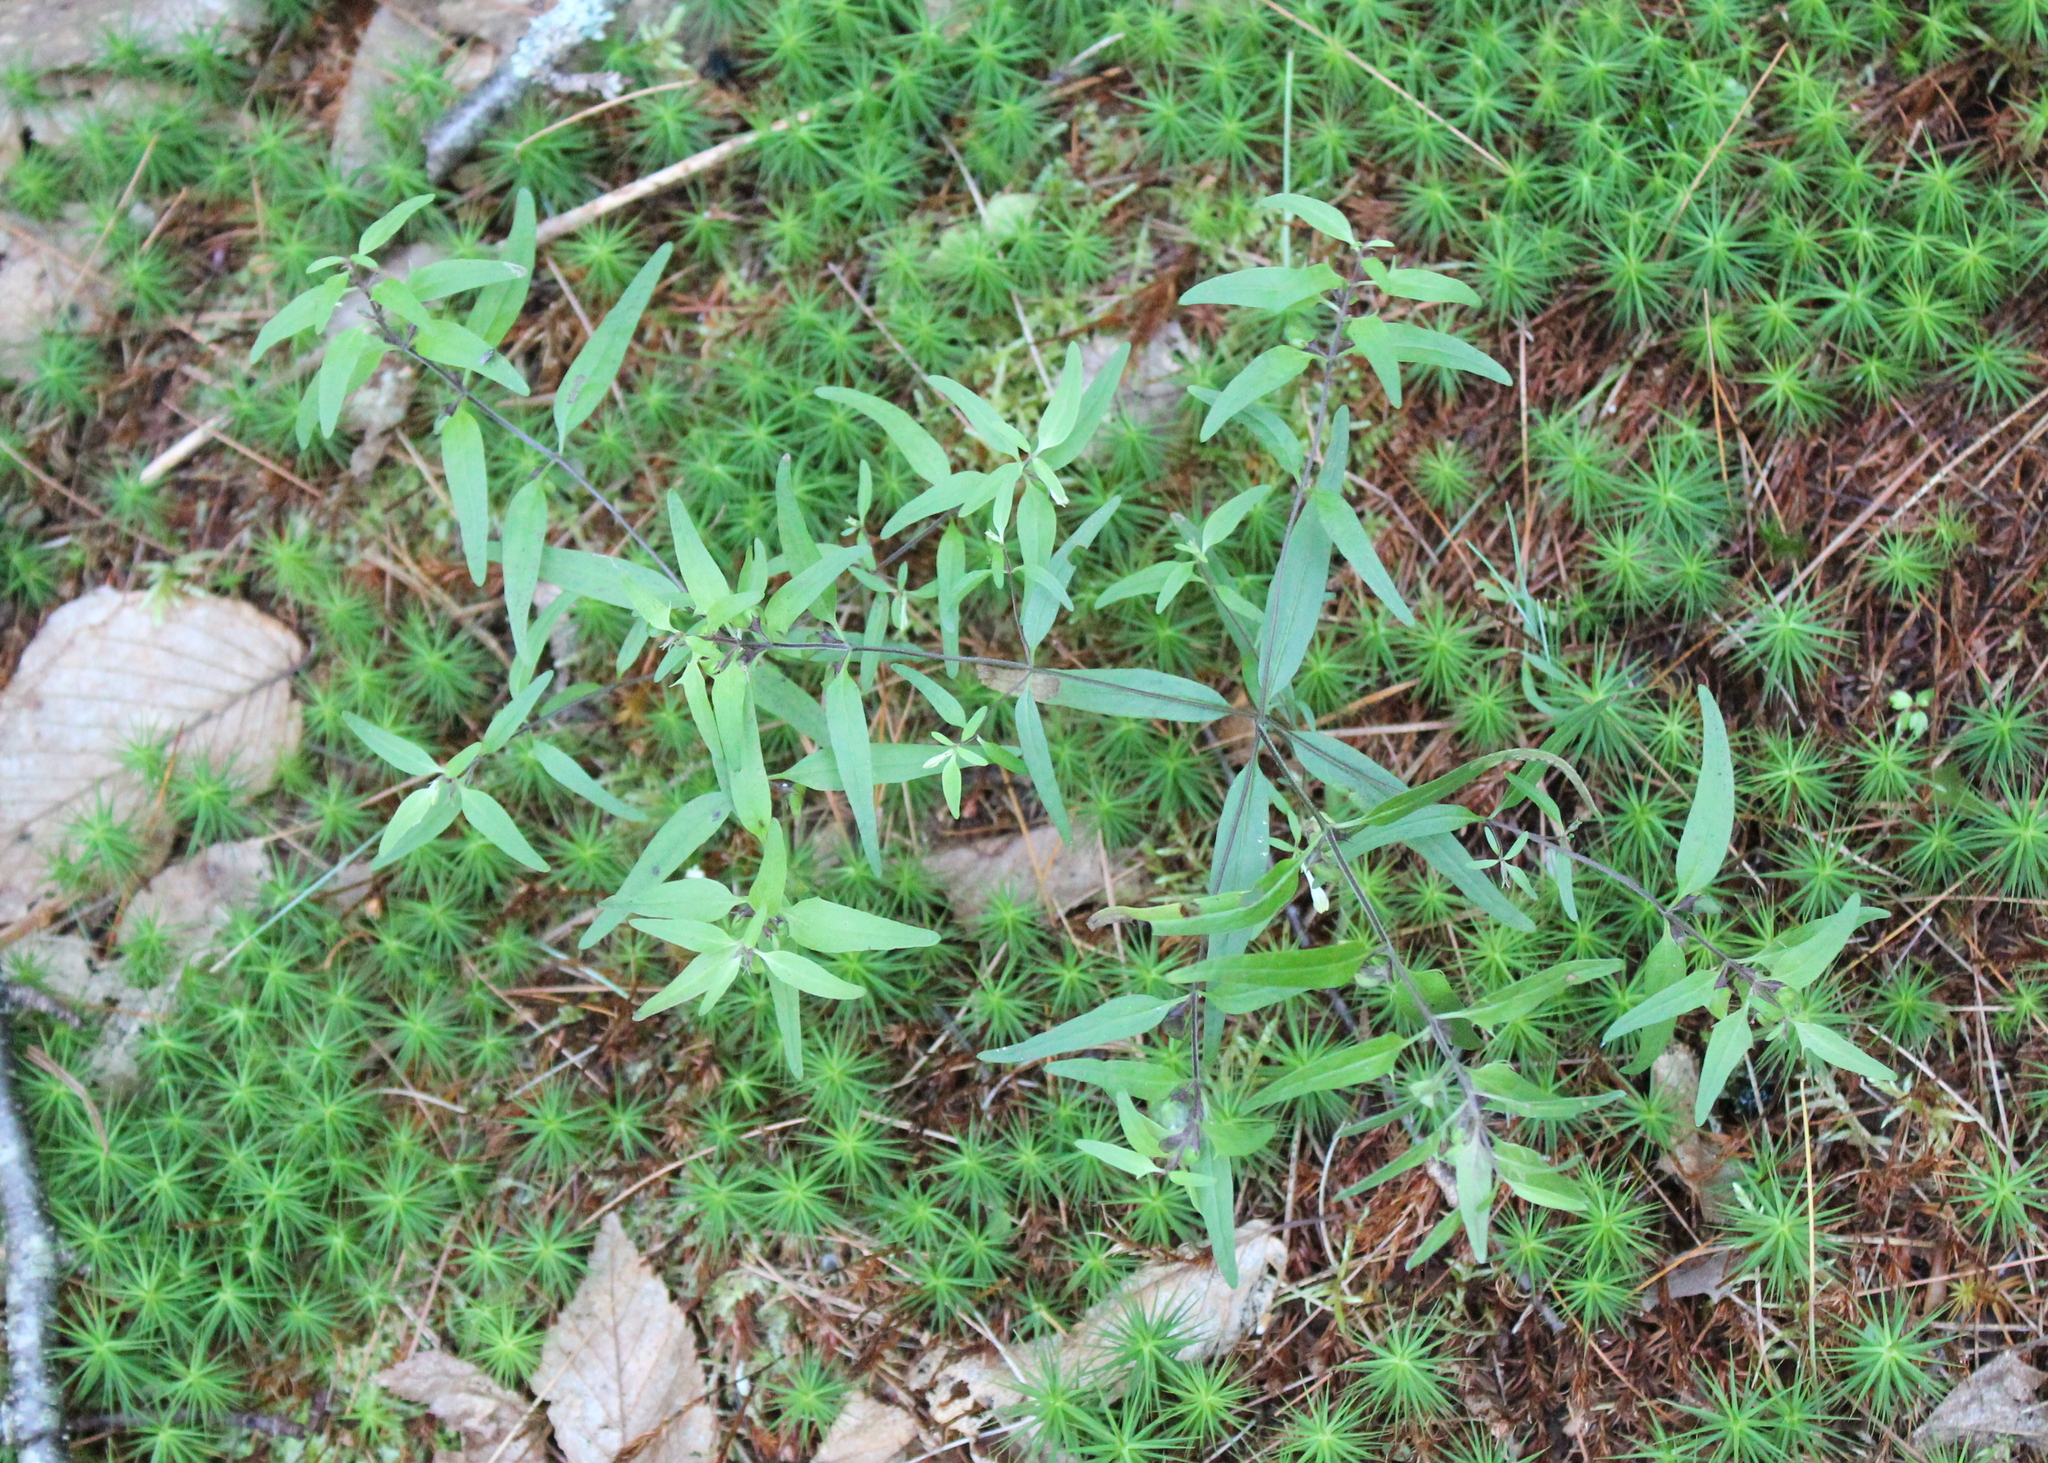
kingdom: Plantae
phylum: Tracheophyta
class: Magnoliopsida
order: Lamiales
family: Orobanchaceae
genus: Melampyrum
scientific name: Melampyrum lineare
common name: American cow-wheat
